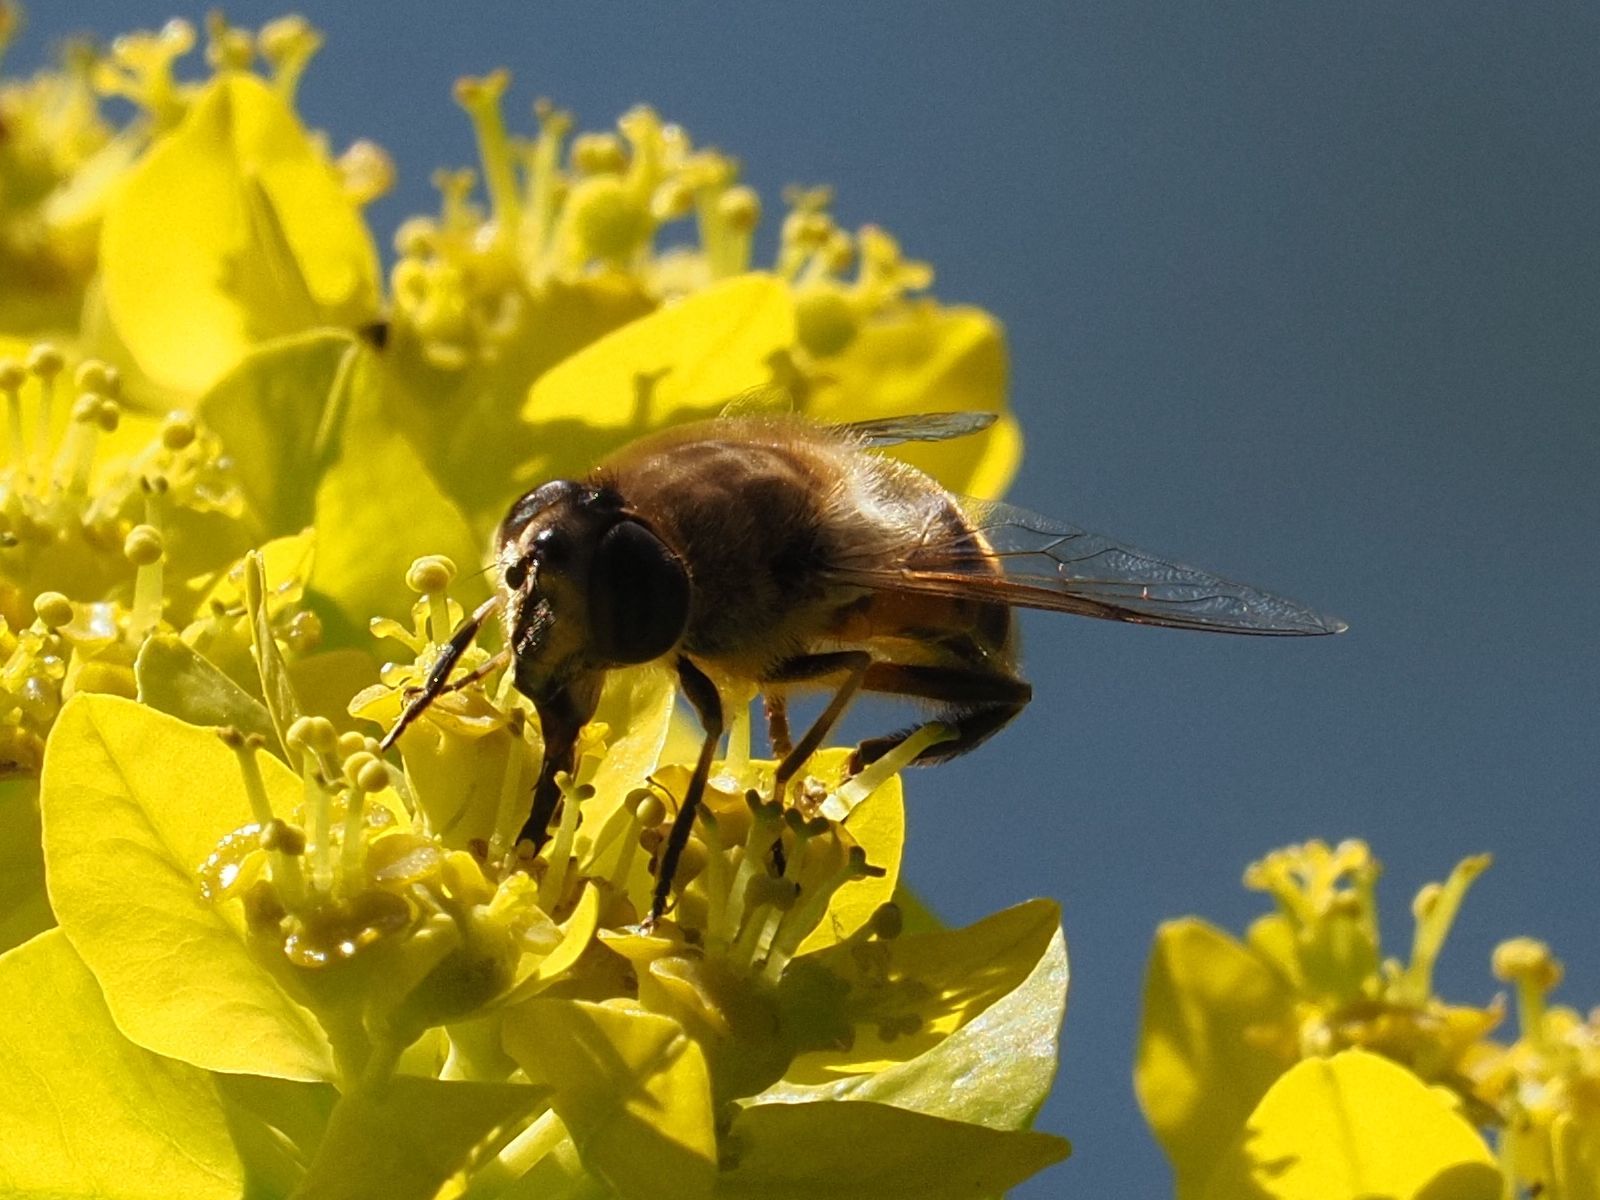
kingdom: Animalia
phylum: Arthropoda
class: Insecta
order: Diptera
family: Syrphidae
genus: Eristalis
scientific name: Eristalis tenax
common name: Drone fly
